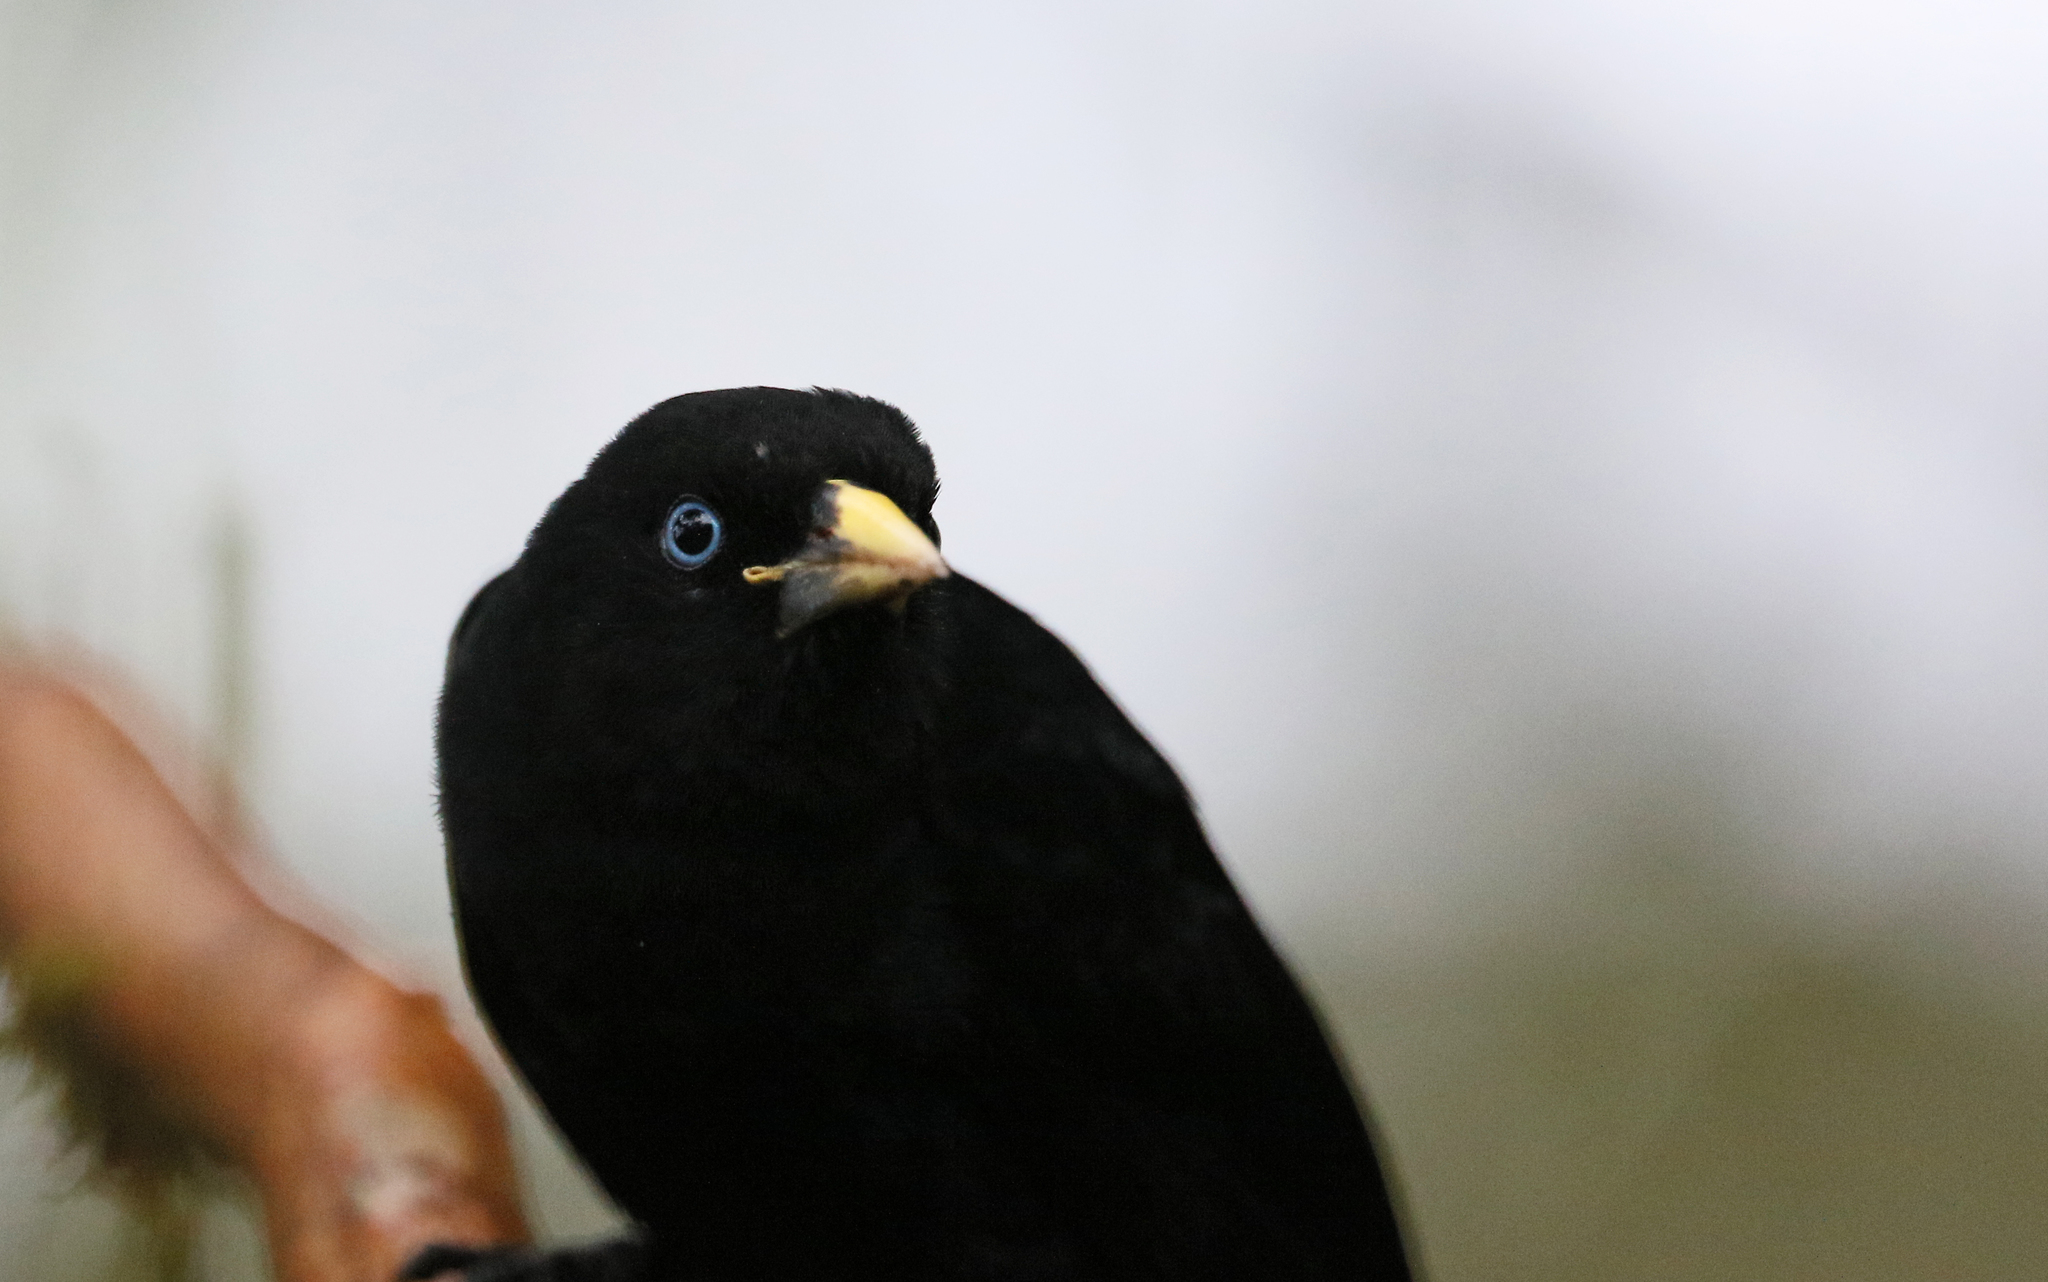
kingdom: Animalia
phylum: Chordata
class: Aves
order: Passeriformes
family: Icteridae
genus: Cacicus
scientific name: Cacicus uropygialis
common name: Scarlet-rumped cacique
